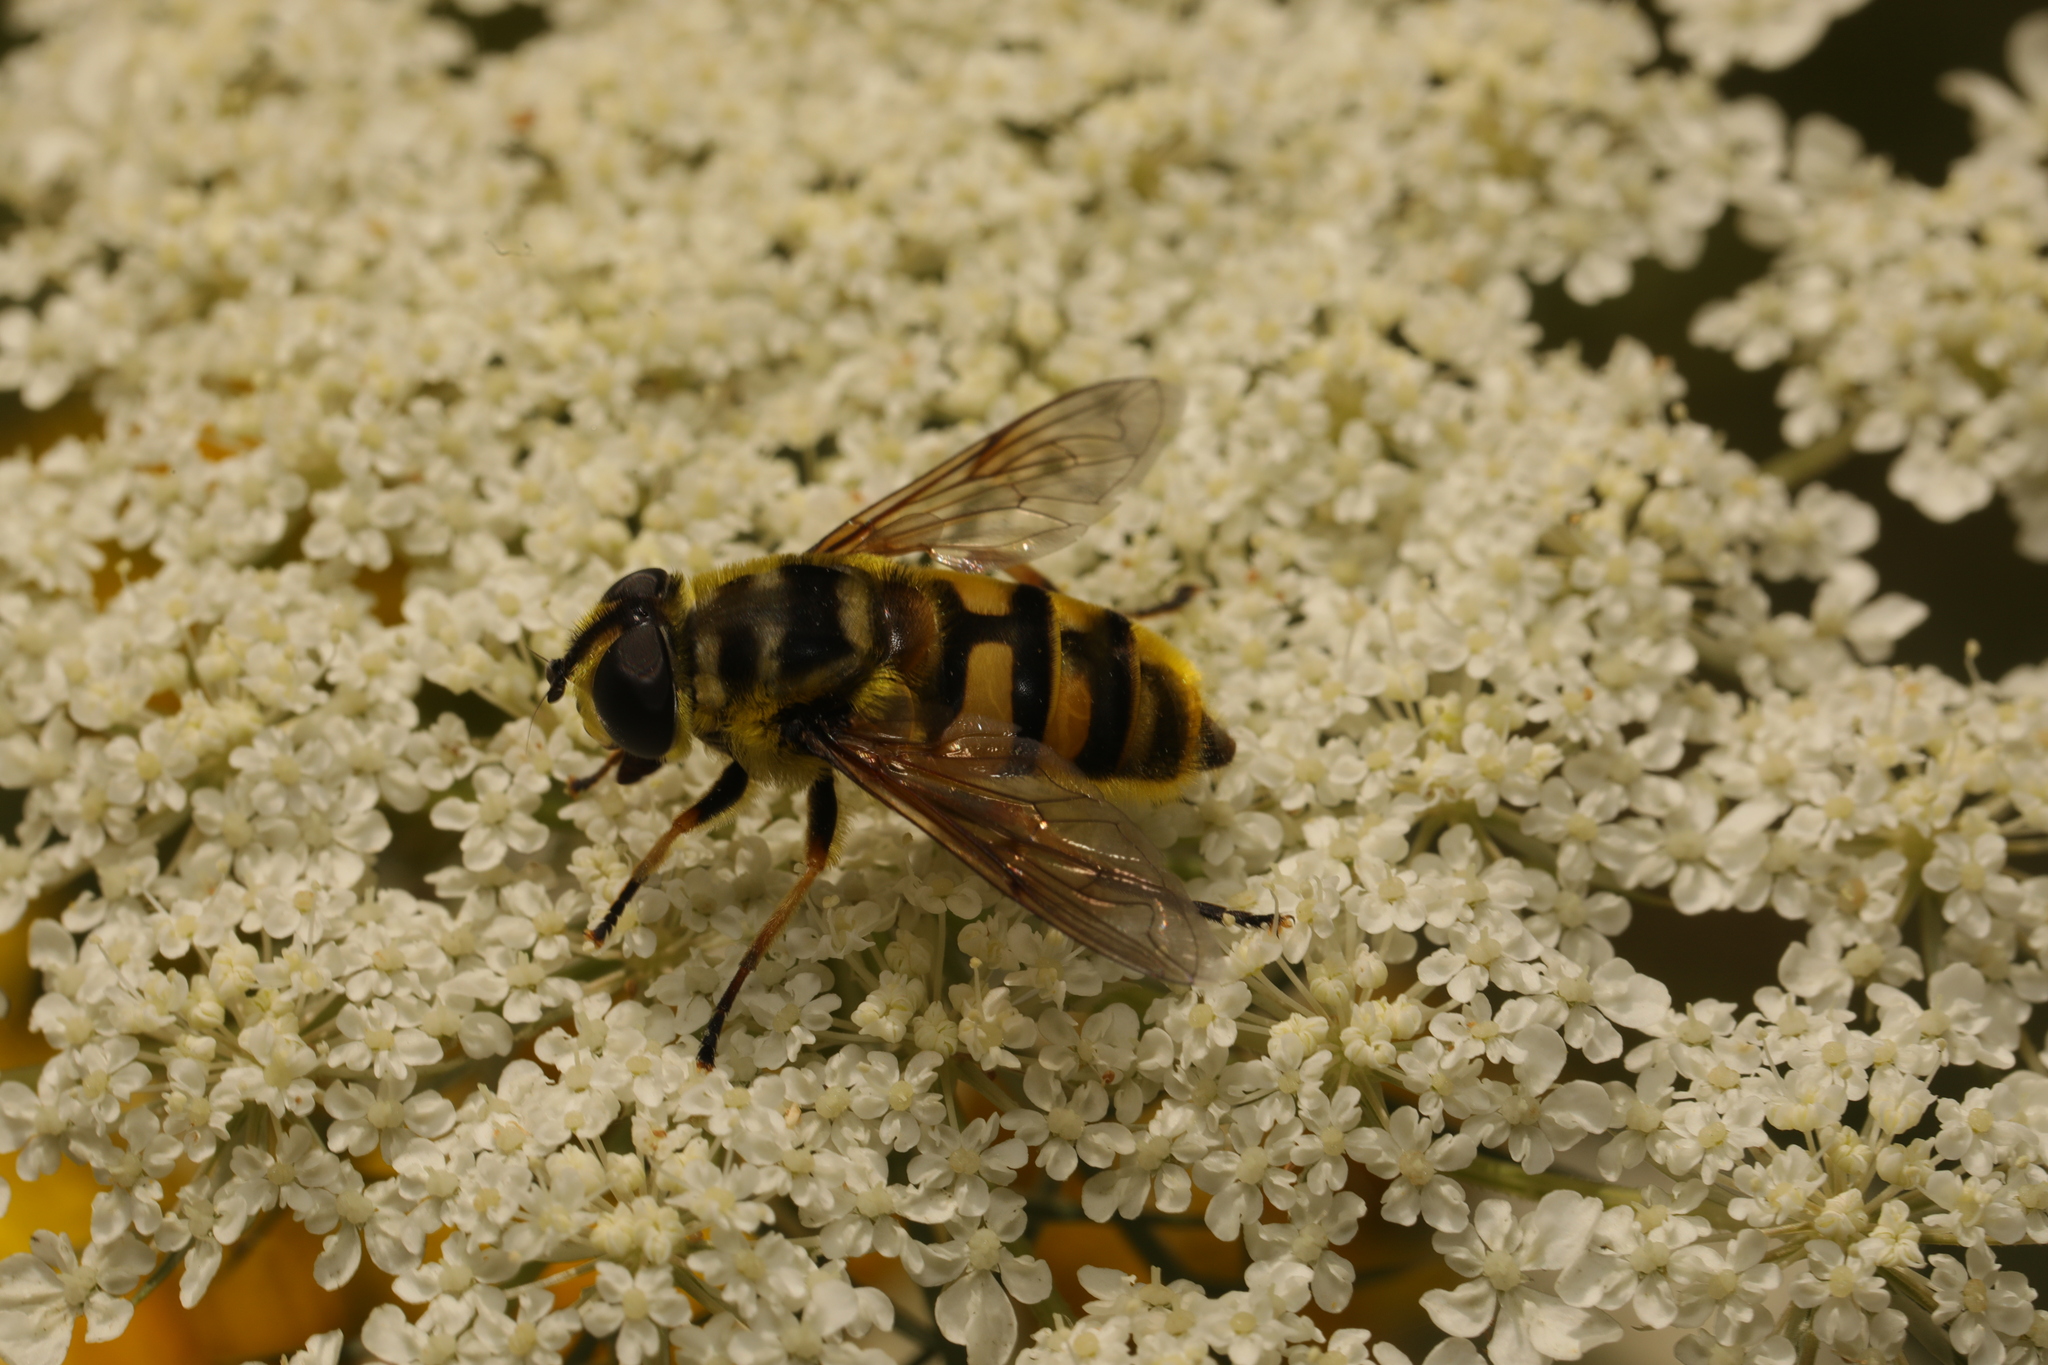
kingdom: Animalia
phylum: Arthropoda
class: Insecta
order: Diptera
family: Syrphidae
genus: Myathropa
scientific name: Myathropa florea
